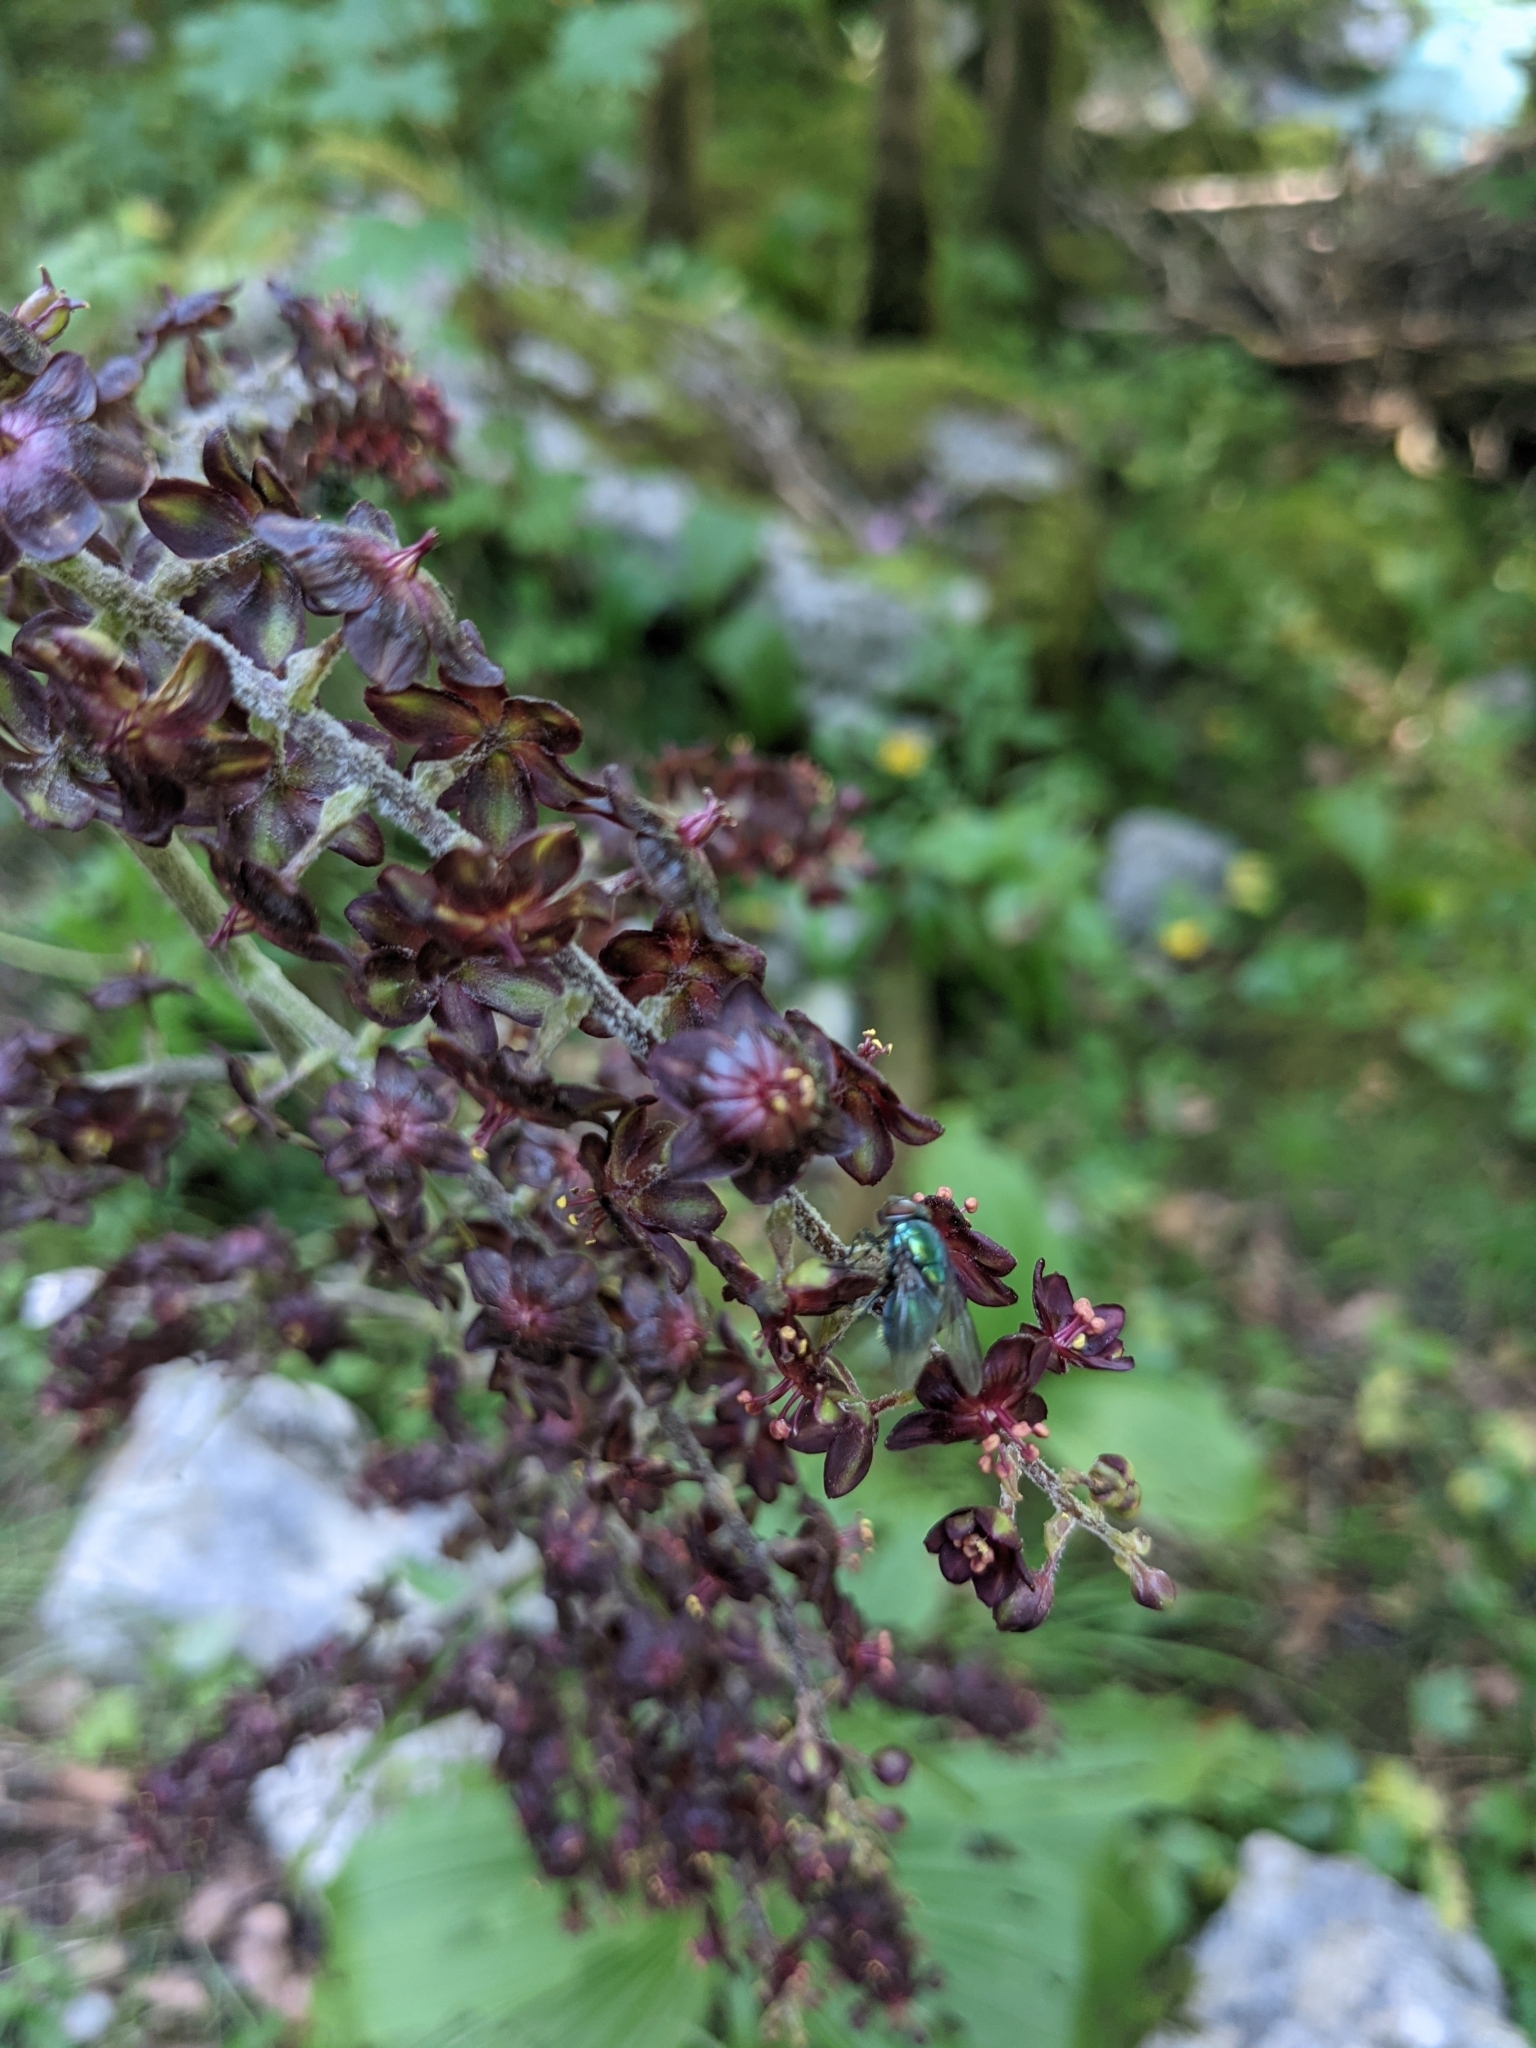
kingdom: Plantae
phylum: Tracheophyta
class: Liliopsida
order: Liliales
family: Melanthiaceae
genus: Veratrum
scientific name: Veratrum nigrum
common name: Black veratrum
